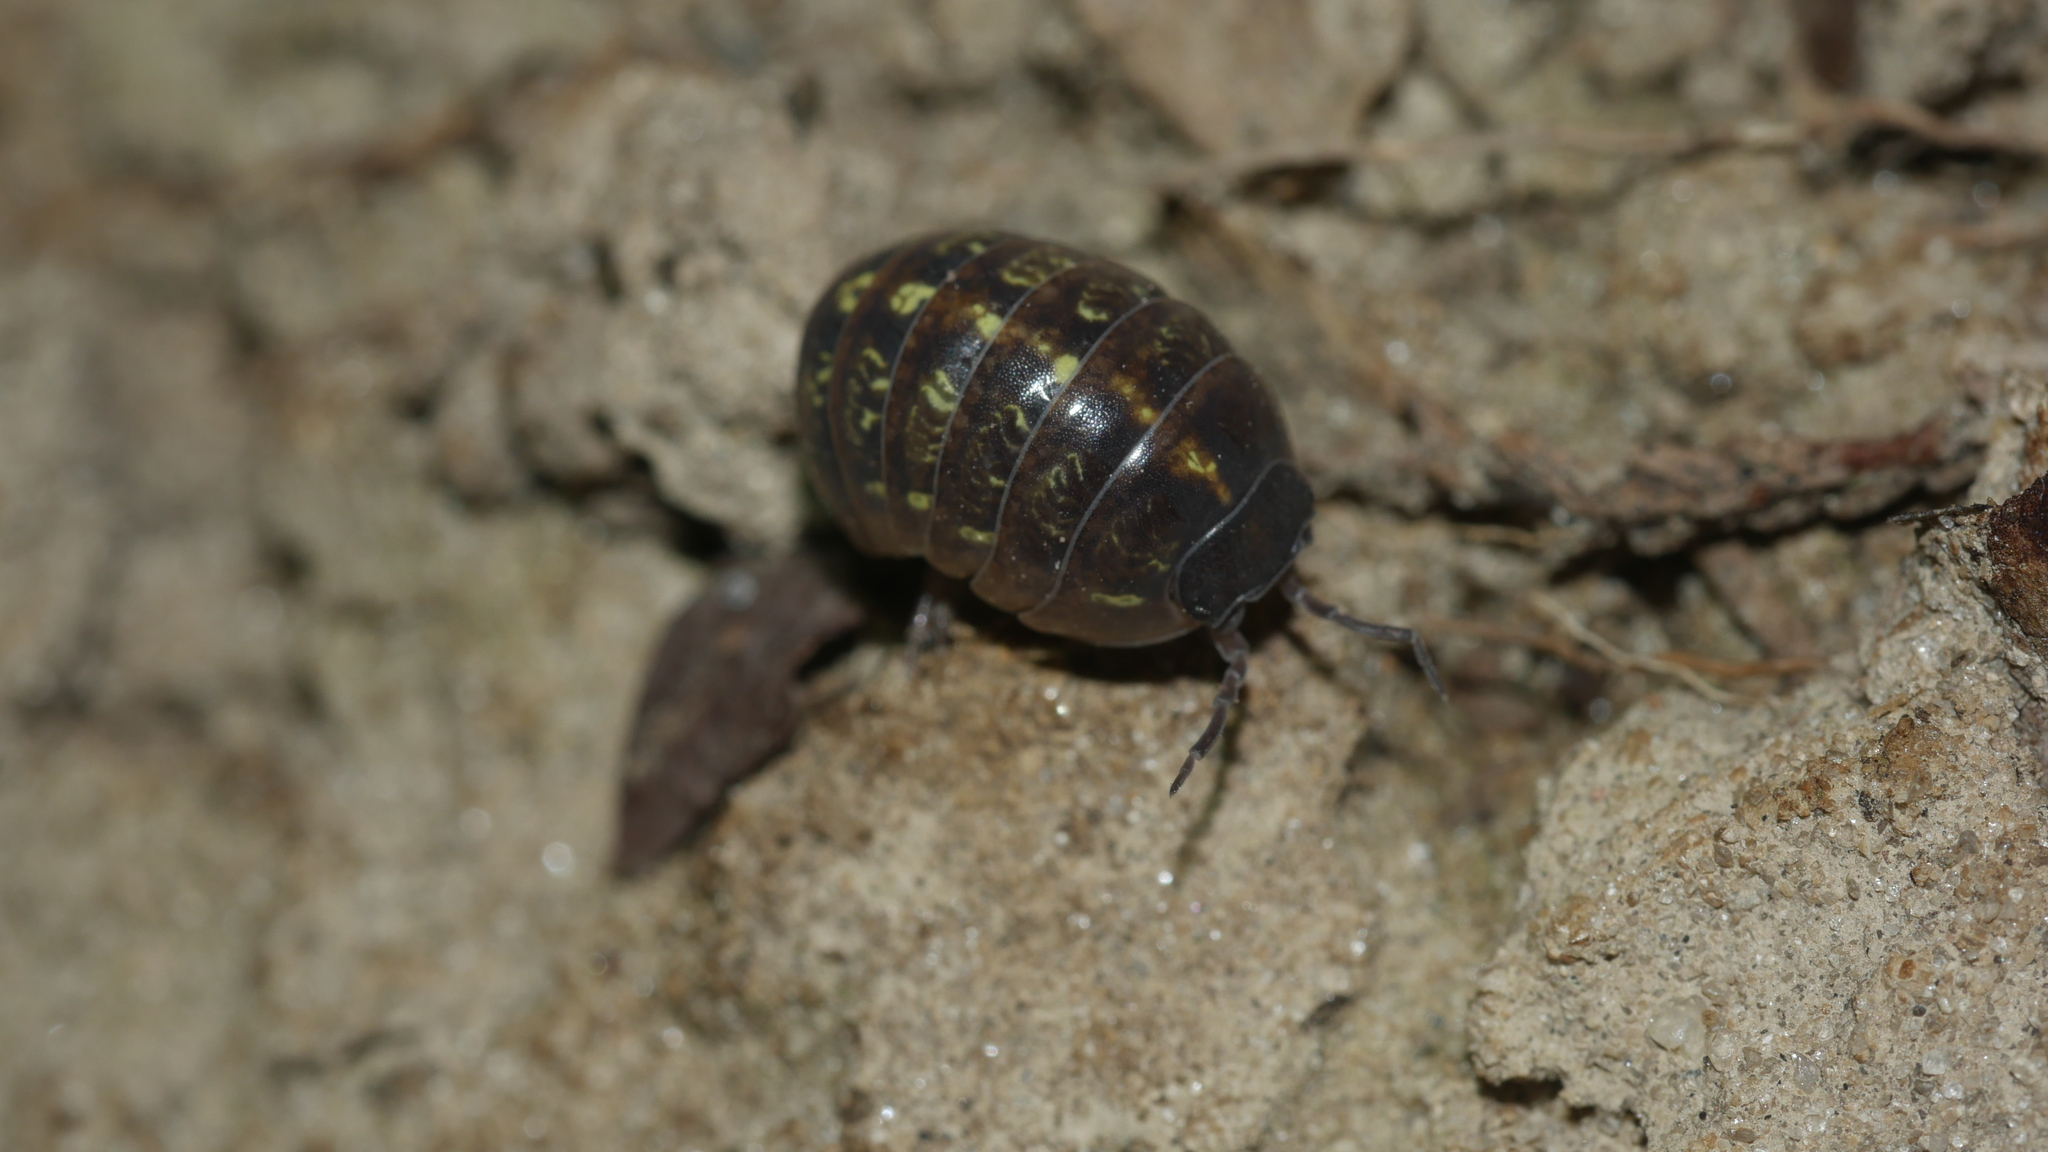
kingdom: Animalia
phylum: Arthropoda
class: Malacostraca
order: Isopoda
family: Armadillidiidae
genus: Armadillidium
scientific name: Armadillidium vulgare
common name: Common pill woodlouse
